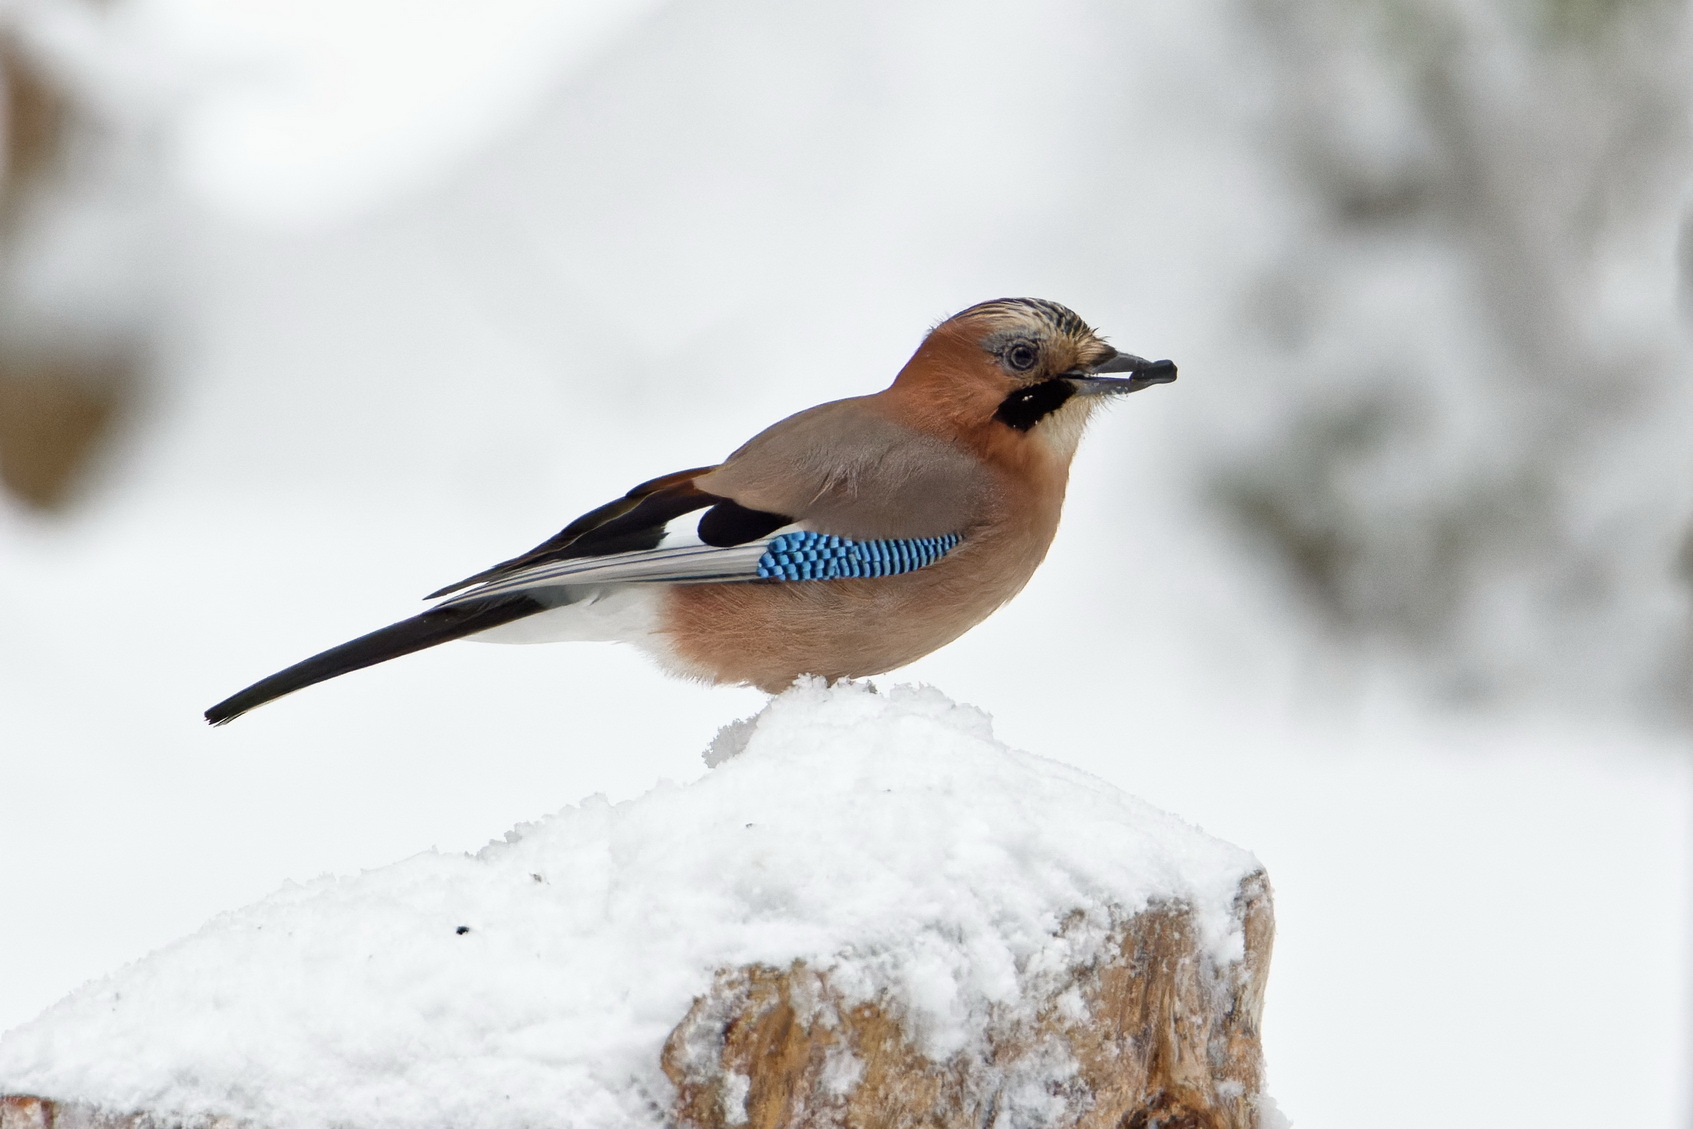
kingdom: Animalia
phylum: Chordata
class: Aves
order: Passeriformes
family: Corvidae
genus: Garrulus
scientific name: Garrulus glandarius
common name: Eurasian jay
